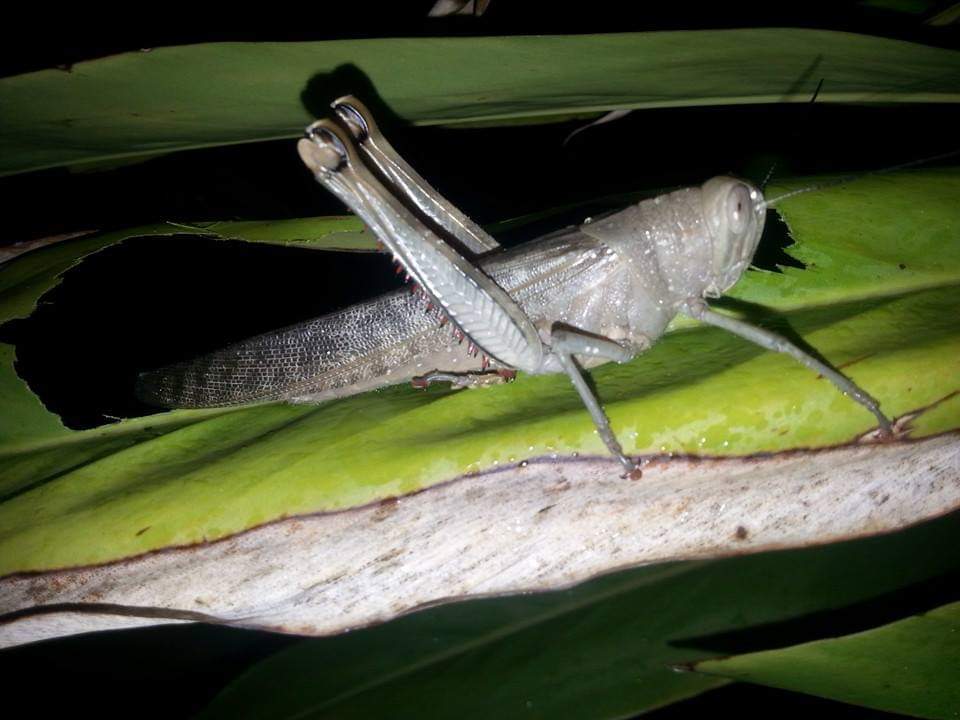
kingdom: Animalia
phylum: Arthropoda
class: Insecta
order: Orthoptera
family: Acrididae
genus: Valanga
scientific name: Valanga irregularis
